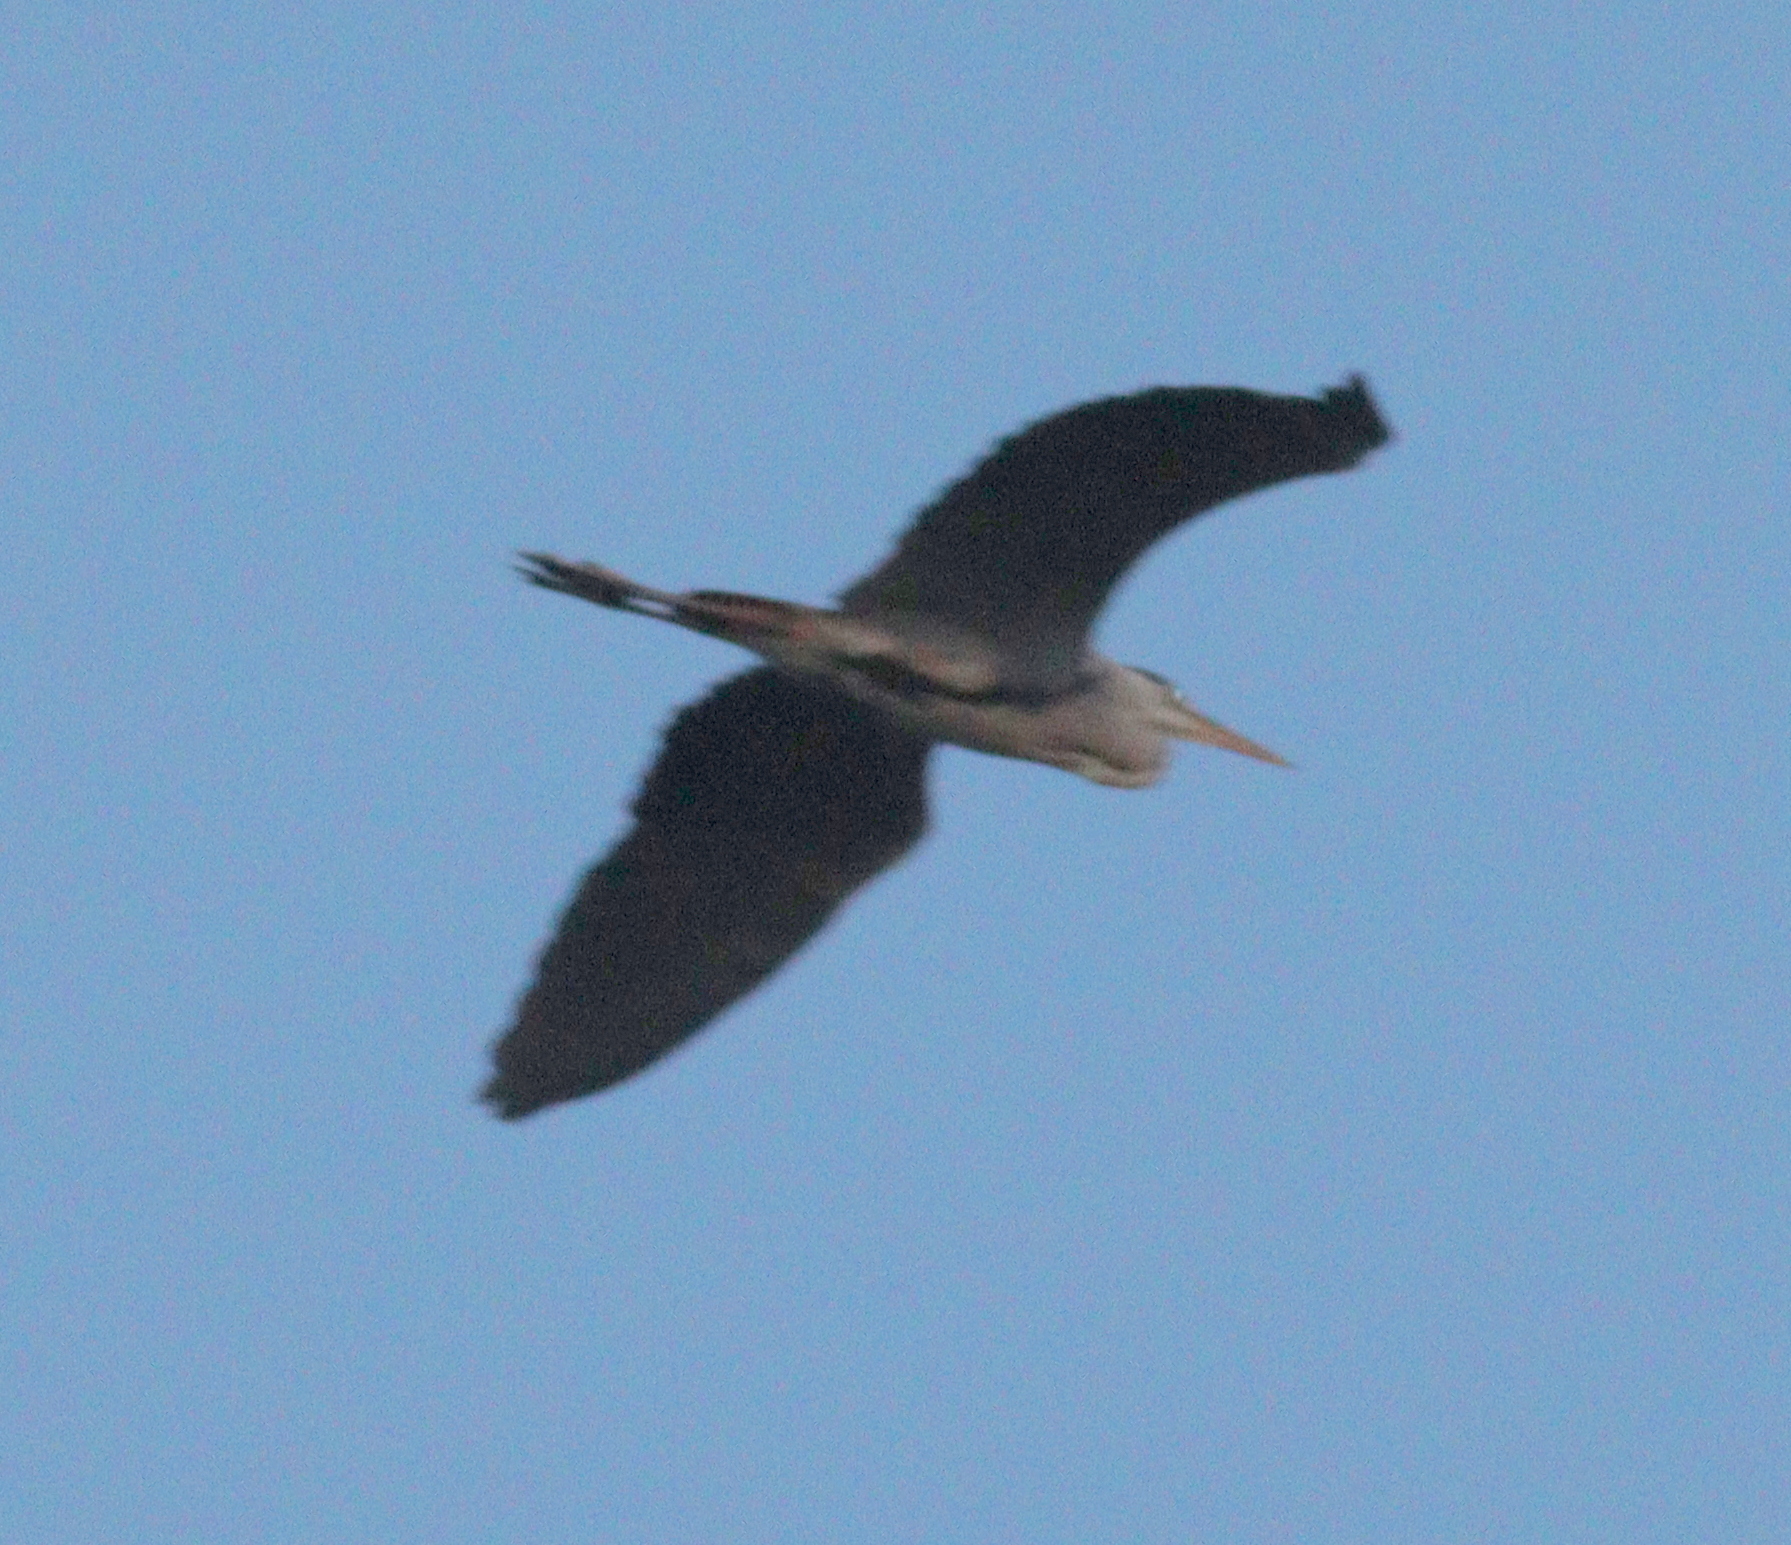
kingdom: Animalia
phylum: Chordata
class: Aves
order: Pelecaniformes
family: Ardeidae
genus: Ardea
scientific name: Ardea cinerea
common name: Grey heron
